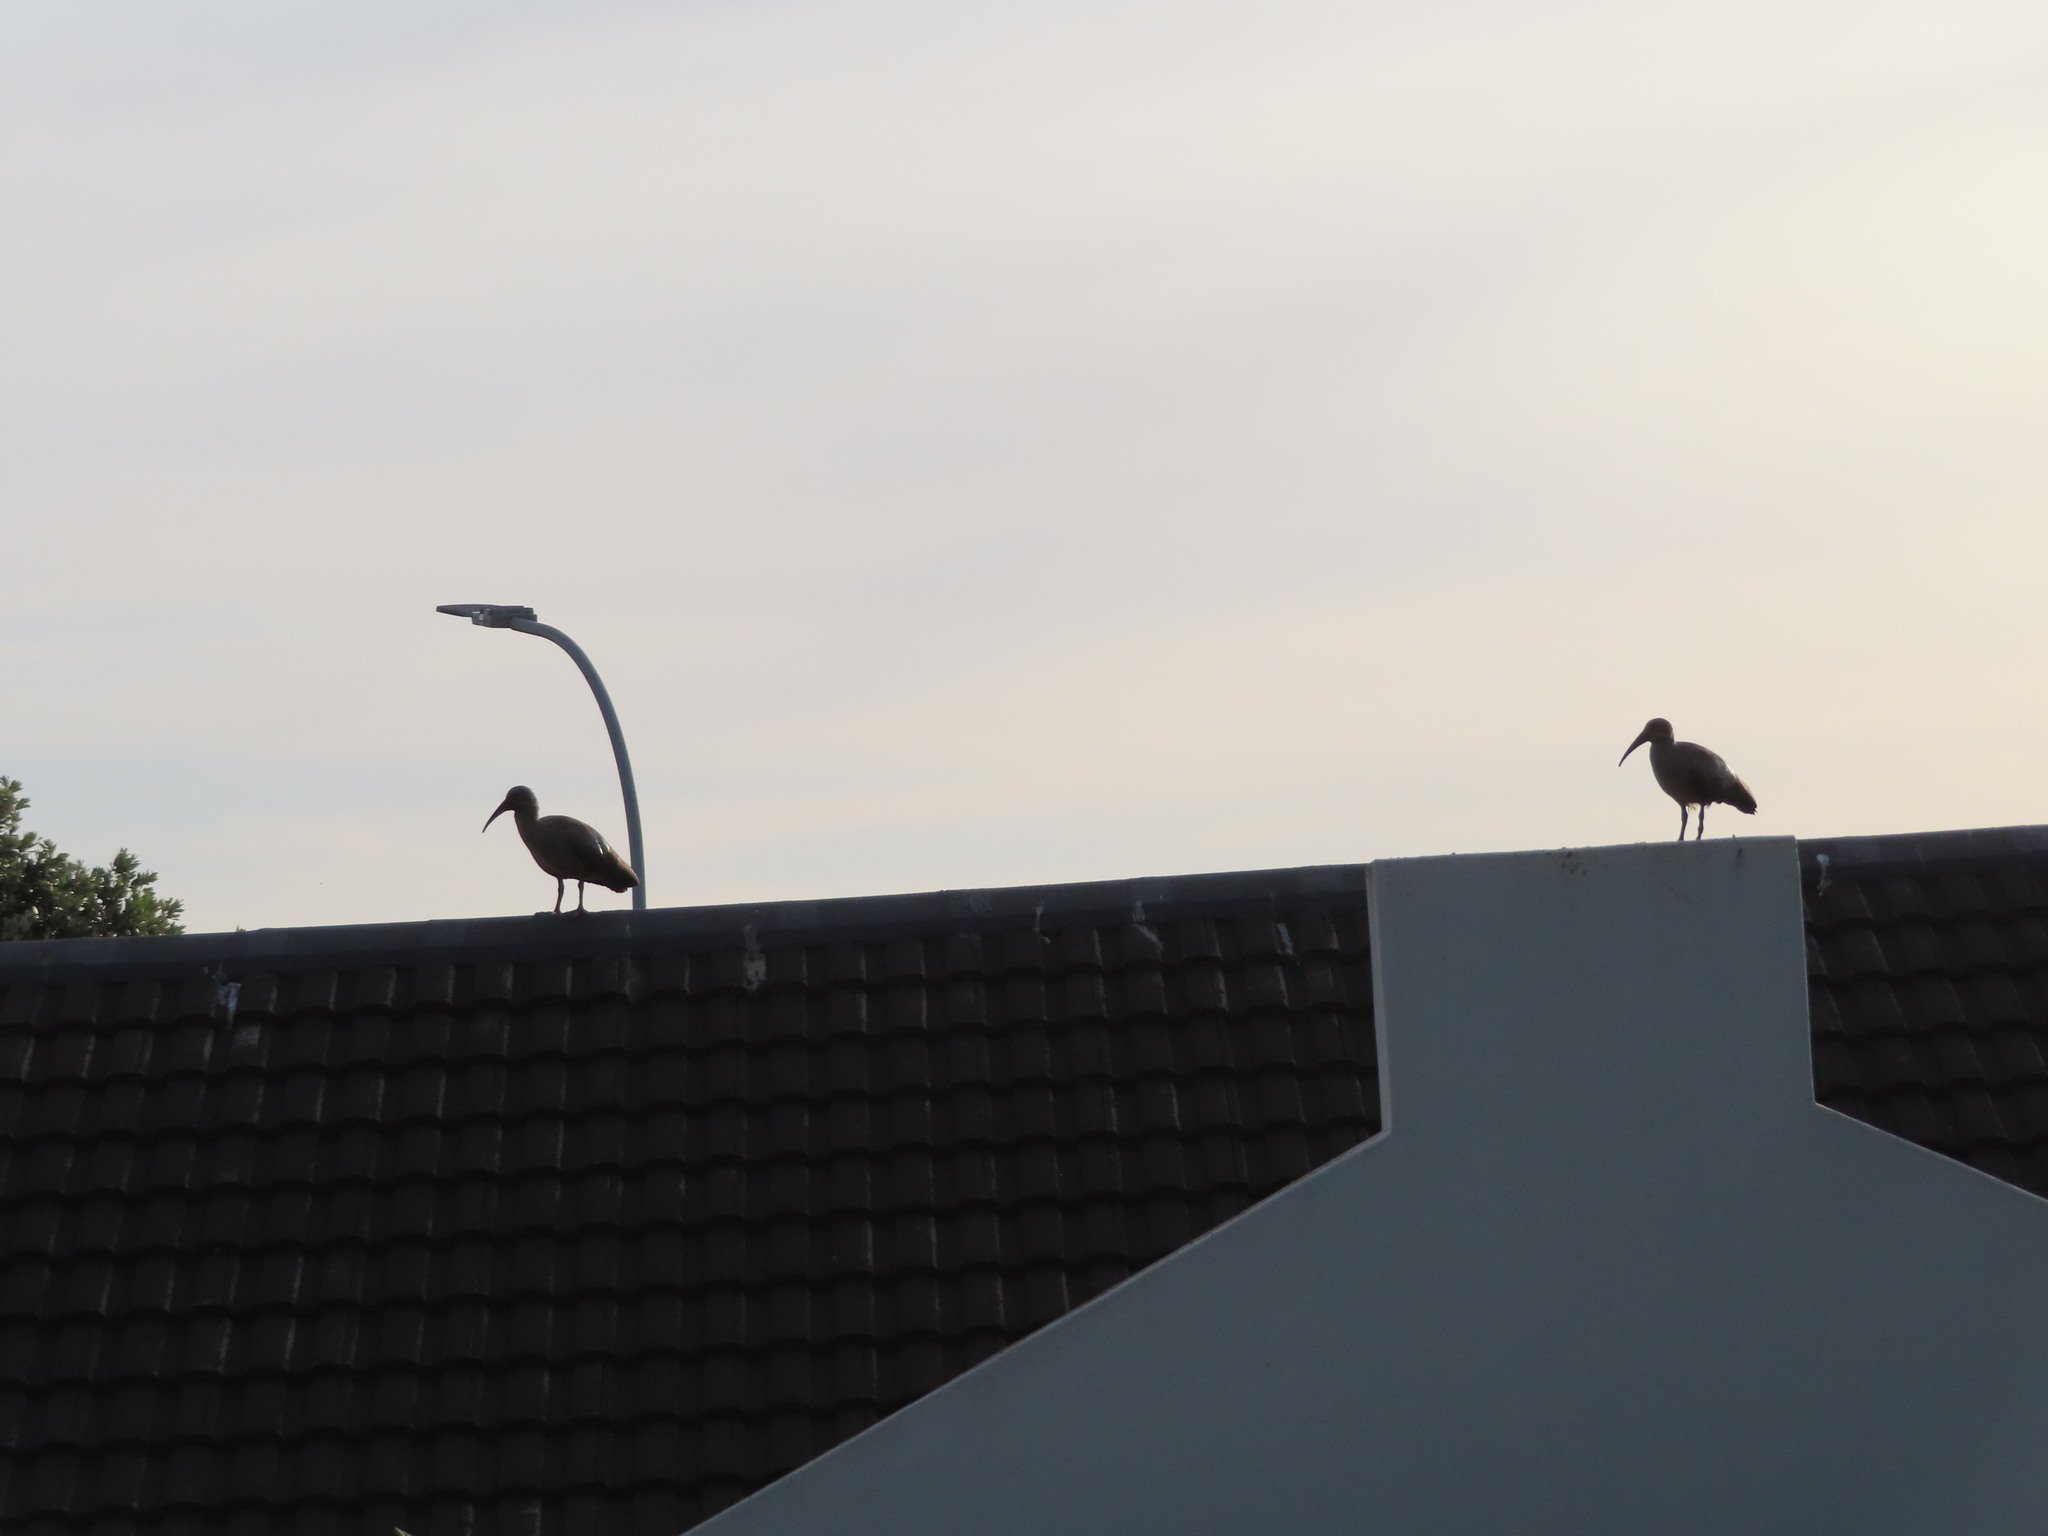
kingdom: Animalia
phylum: Chordata
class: Aves
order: Pelecaniformes
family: Threskiornithidae
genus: Bostrychia
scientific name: Bostrychia hagedash
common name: Hadada ibis
